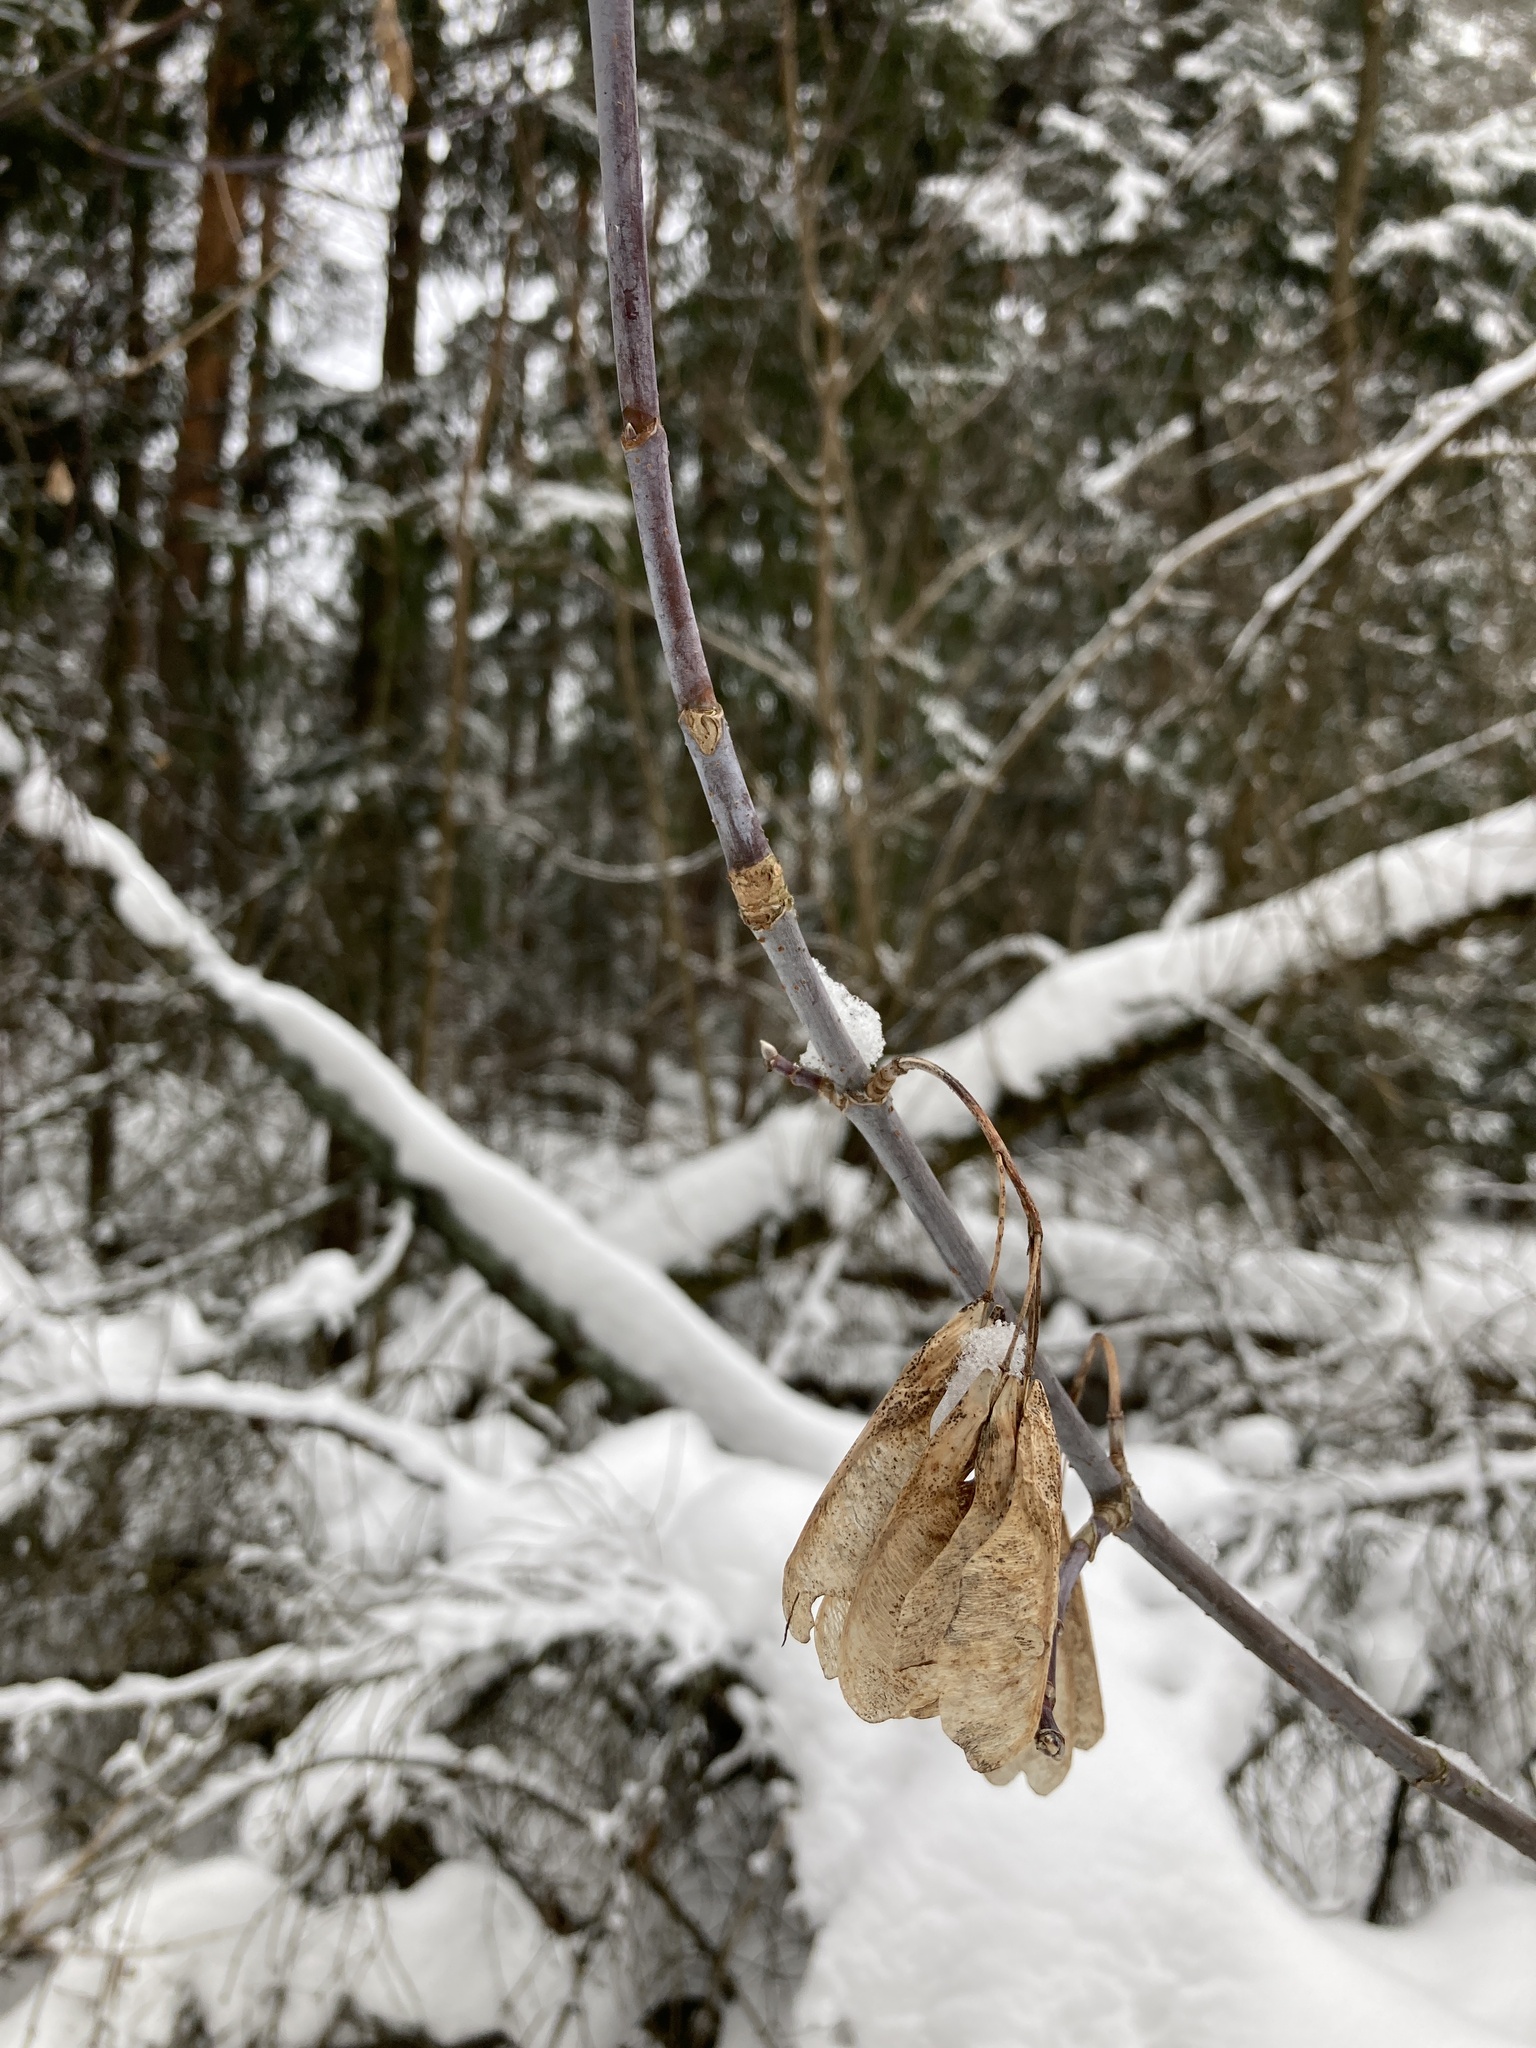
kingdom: Plantae
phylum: Tracheophyta
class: Magnoliopsida
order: Sapindales
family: Sapindaceae
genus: Acer
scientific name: Acer negundo
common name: Ashleaf maple
